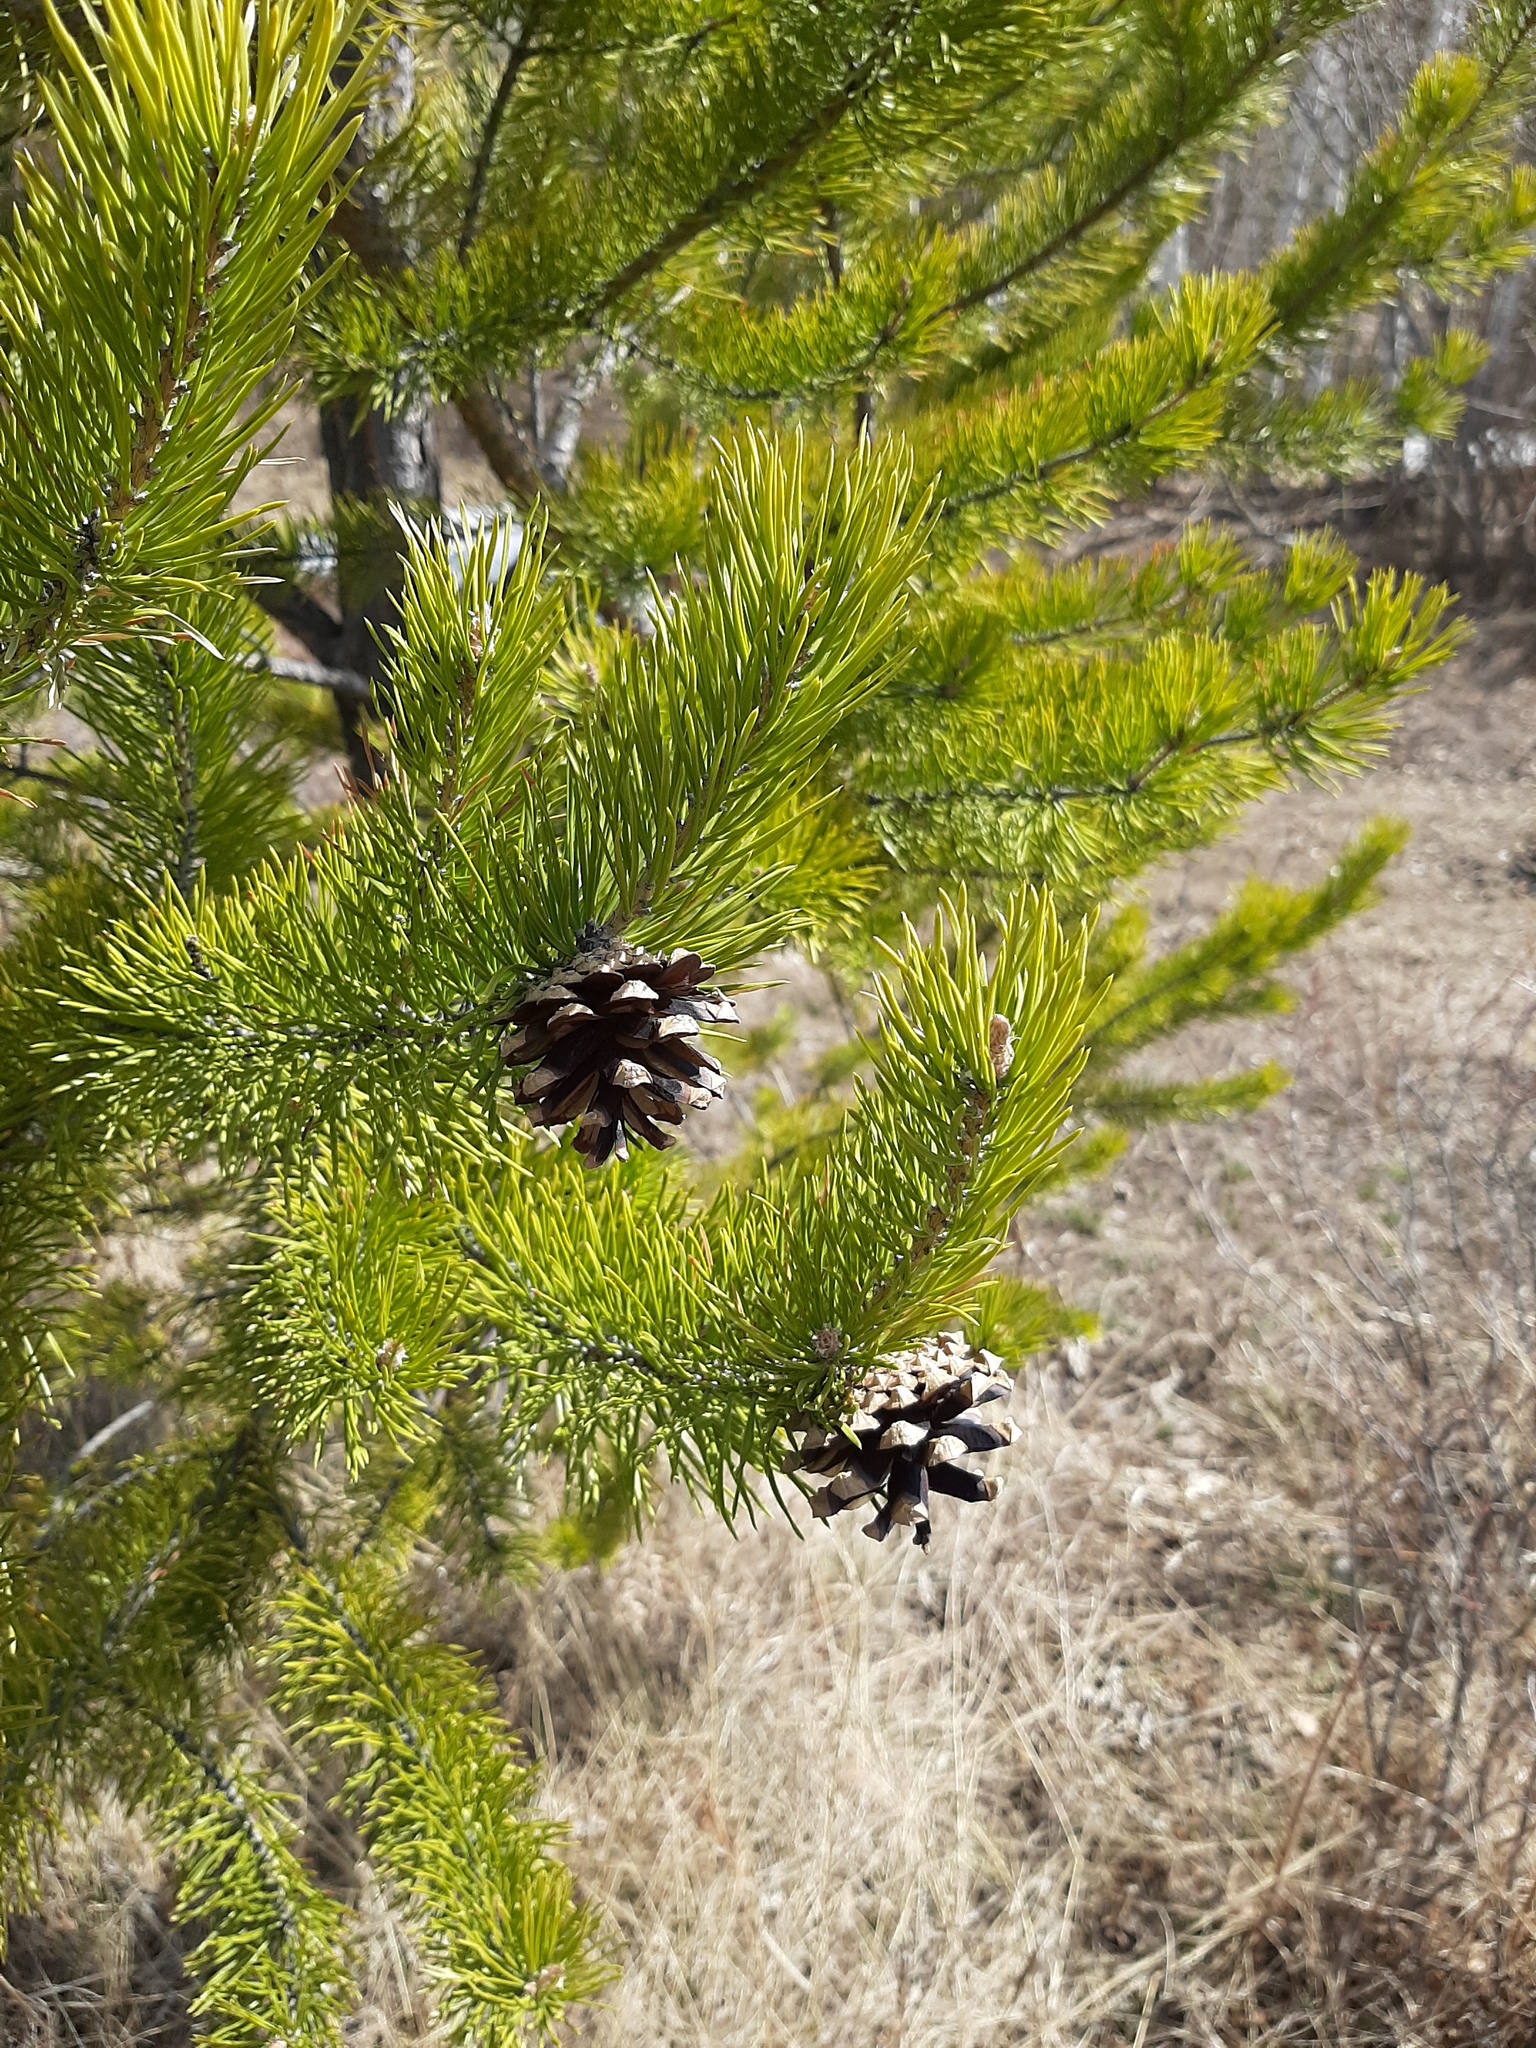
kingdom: Plantae
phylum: Tracheophyta
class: Pinopsida
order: Pinales
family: Pinaceae
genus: Pinus
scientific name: Pinus sylvestris
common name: Scots pine
